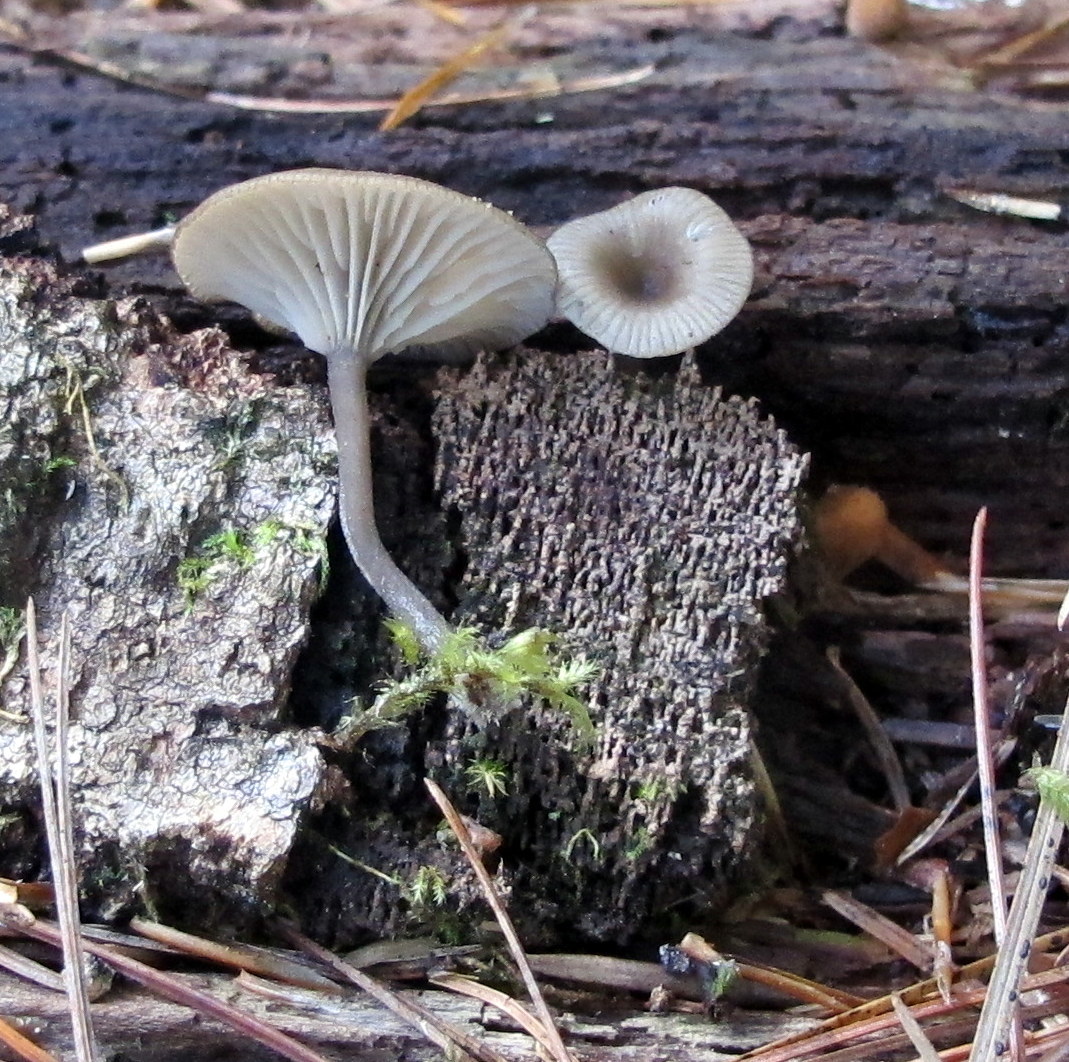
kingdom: Fungi
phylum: Basidiomycota
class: Agaricomycetes
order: Agaricales
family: Hygrophoraceae
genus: Arrhenia
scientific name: Arrhenia epichysium
